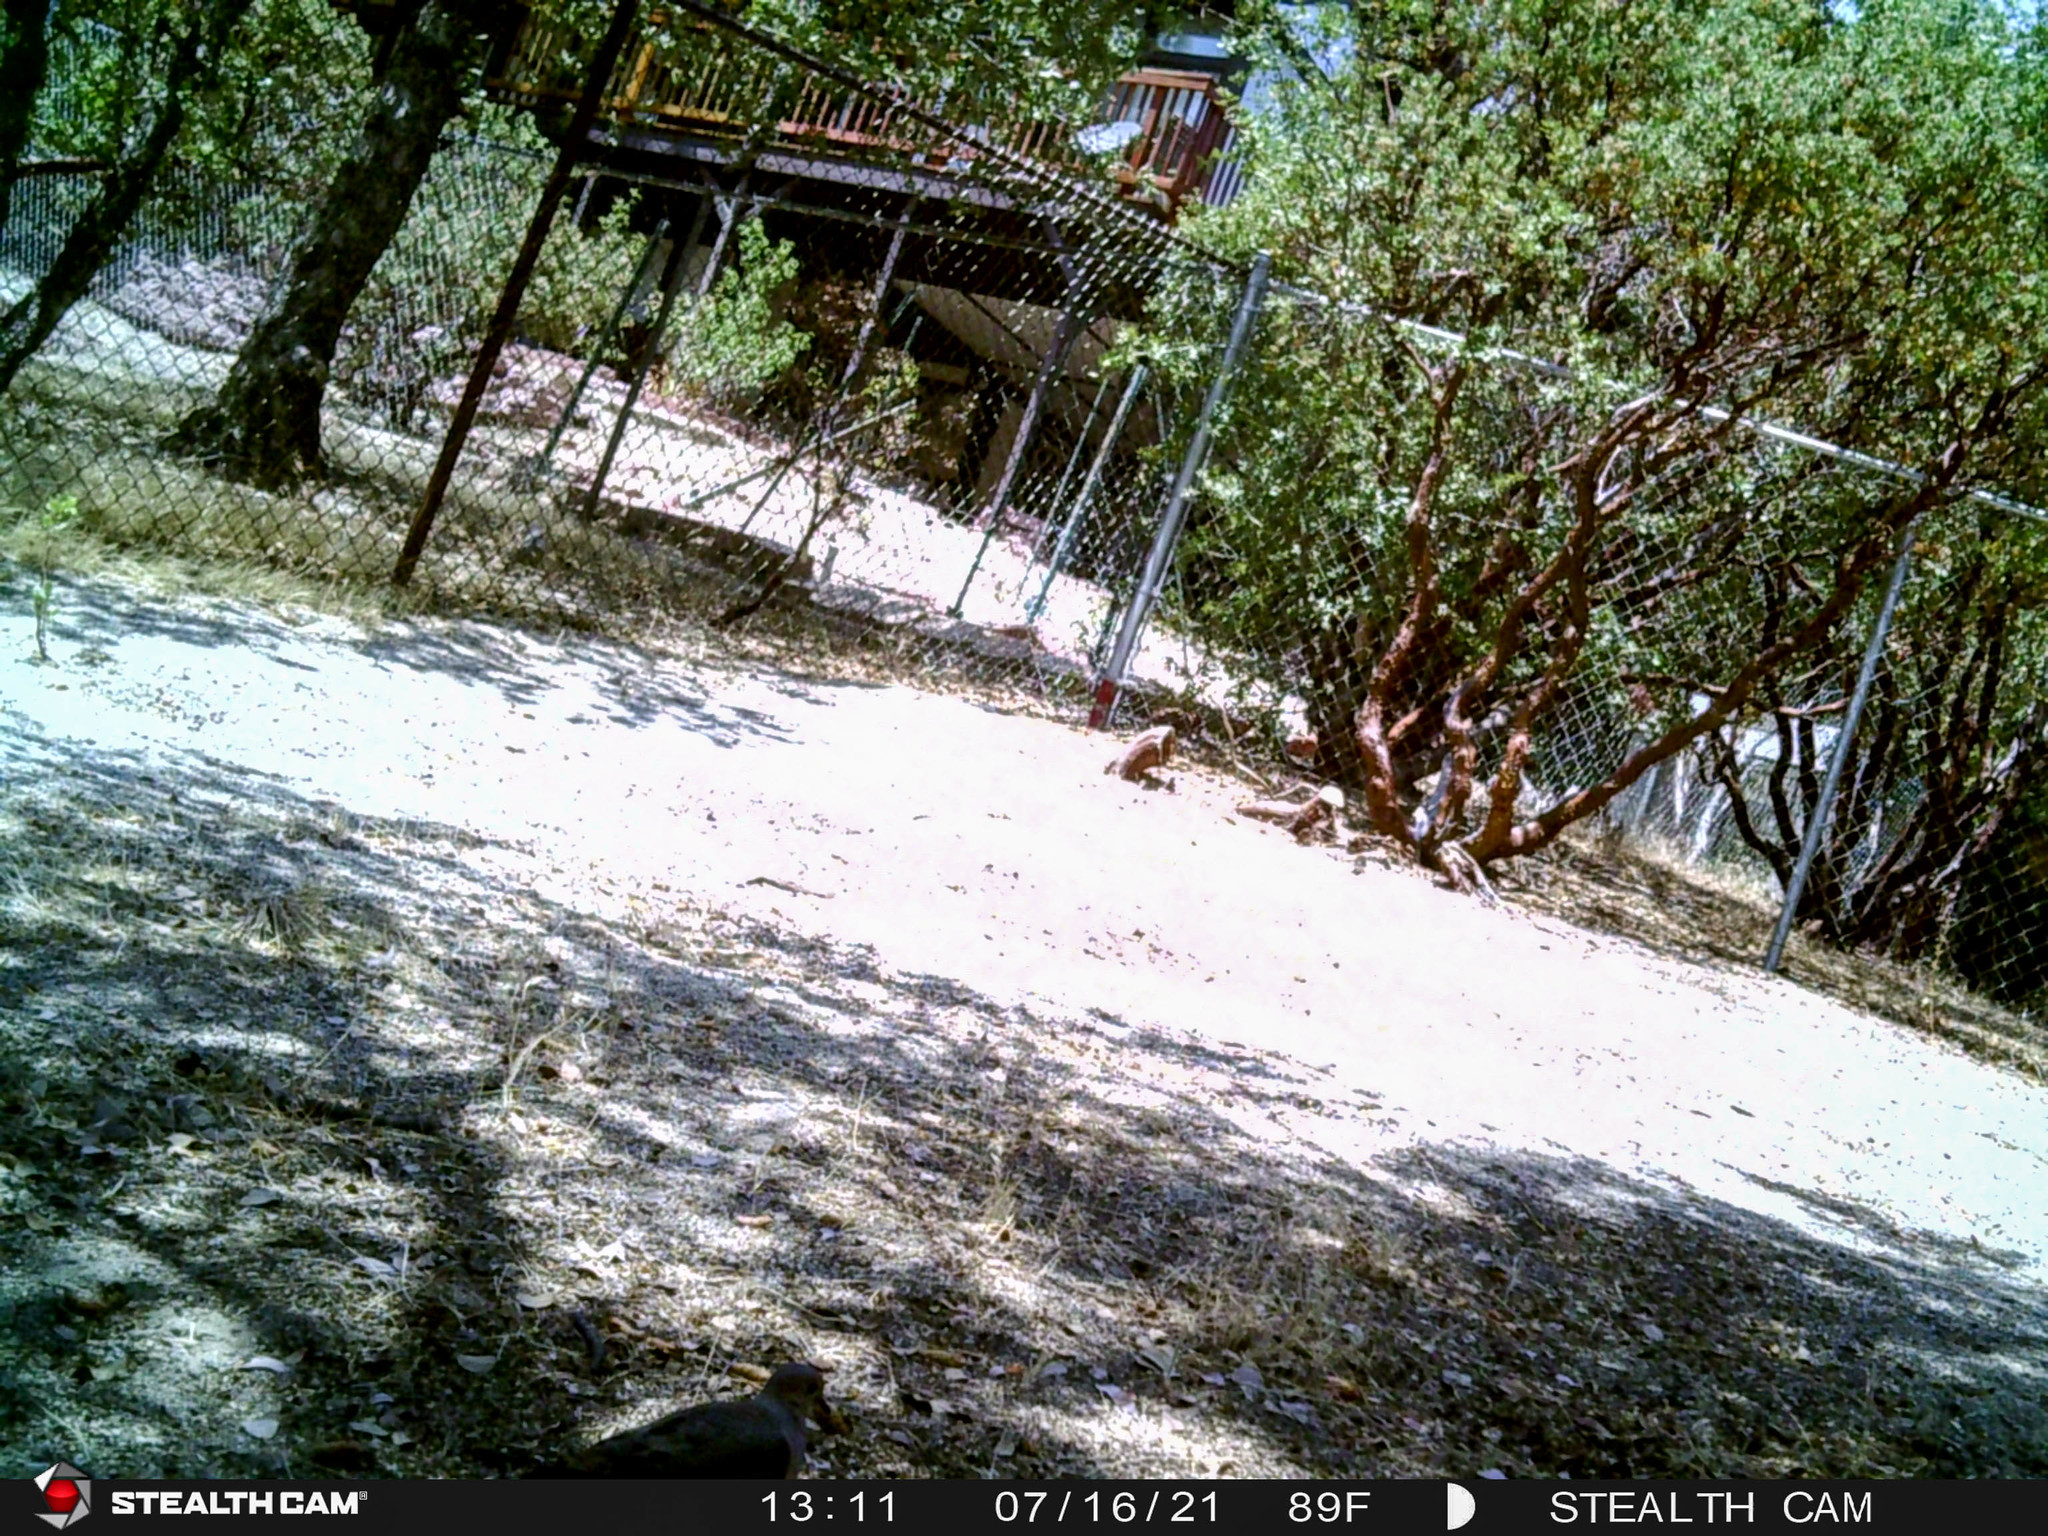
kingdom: Animalia
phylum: Chordata
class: Aves
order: Columbiformes
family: Columbidae
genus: Zenaida
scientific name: Zenaida macroura
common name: Mourning dove
